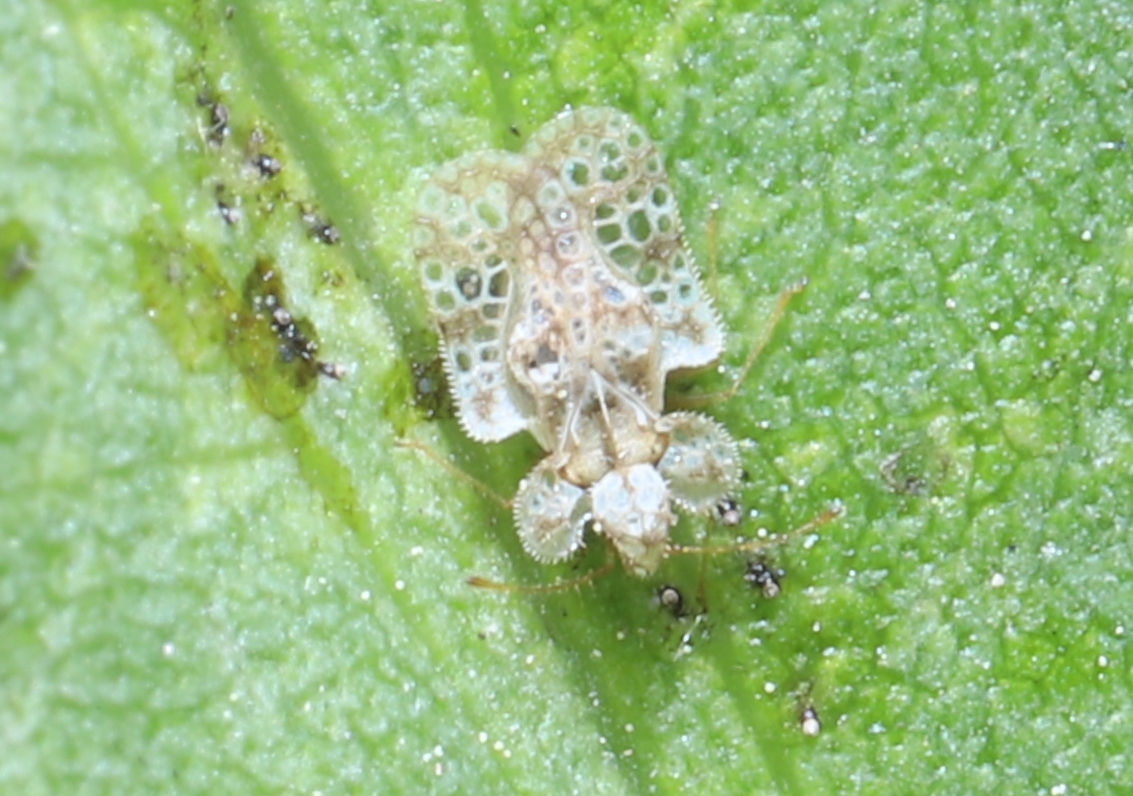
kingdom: Animalia
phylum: Arthropoda
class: Insecta
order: Hemiptera
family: Tingidae
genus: Corythucha
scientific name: Corythucha marmorata
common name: Chrysanthemum lace bug
